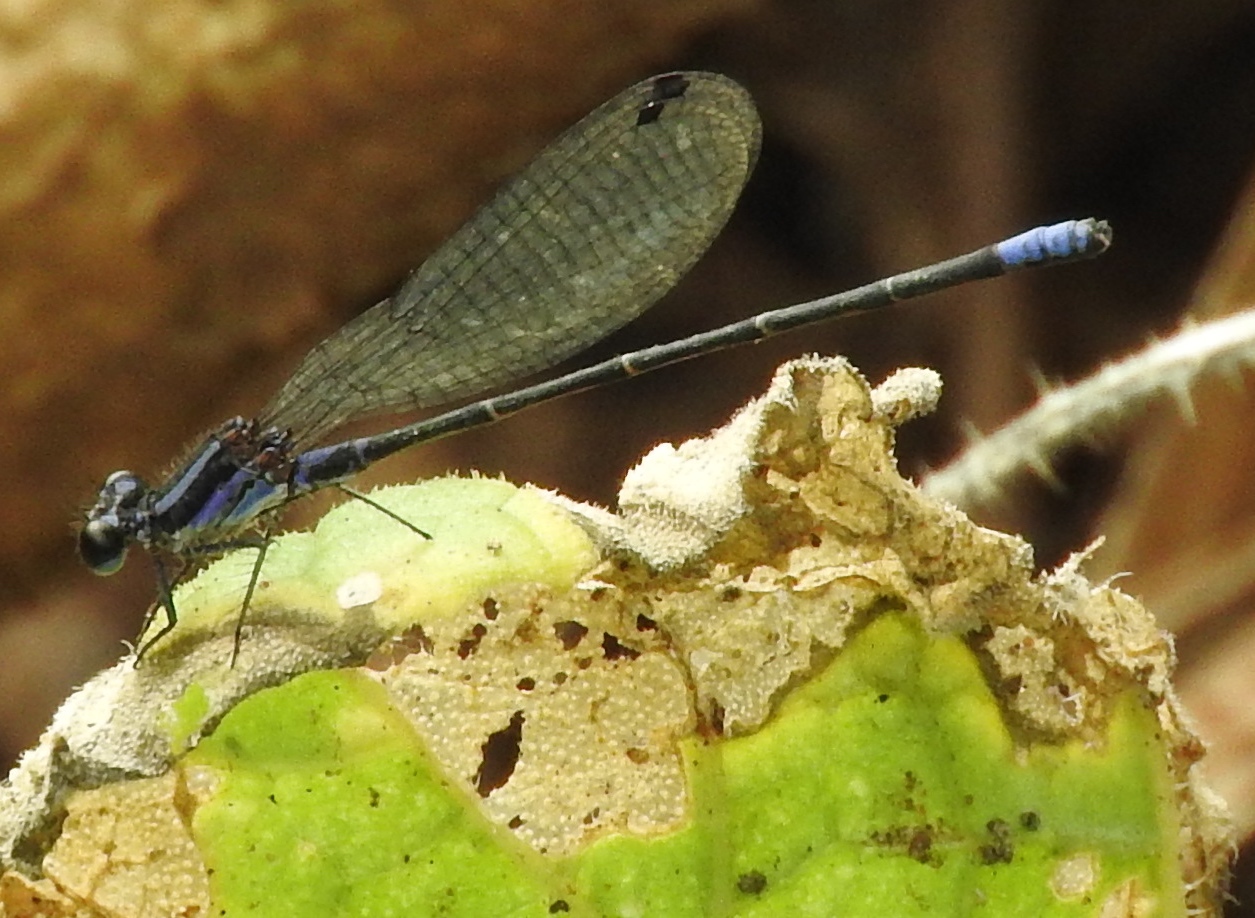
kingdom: Animalia
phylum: Arthropoda
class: Insecta
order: Odonata
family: Coenagrionidae
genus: Argia
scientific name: Argia
